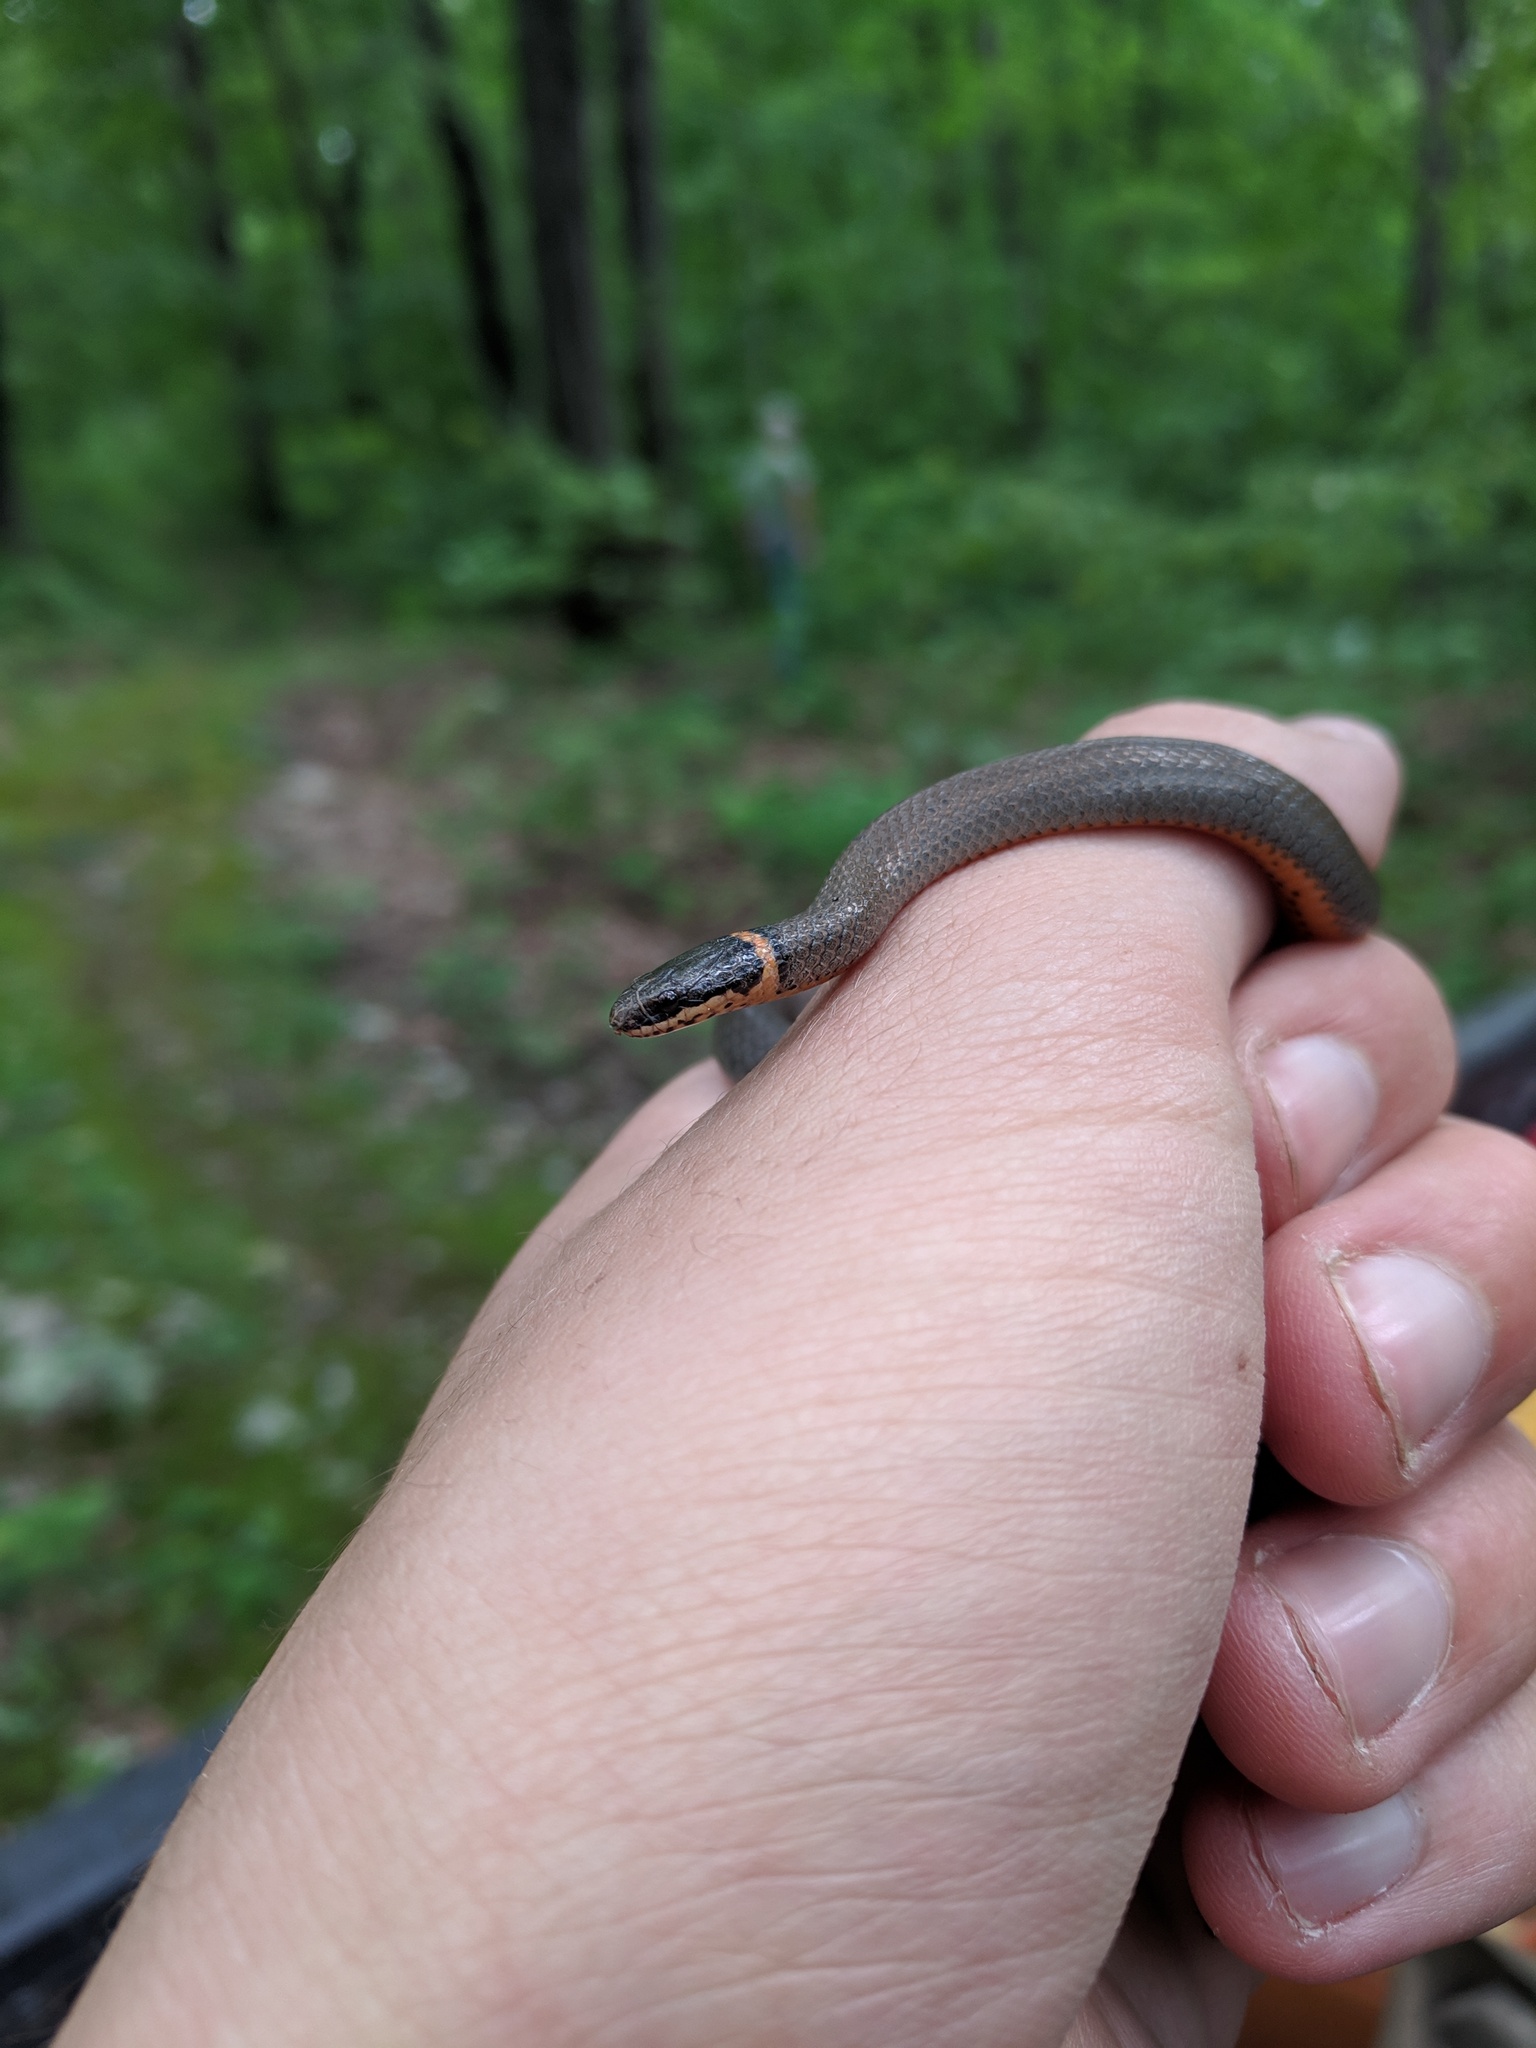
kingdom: Animalia
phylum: Chordata
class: Squamata
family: Colubridae
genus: Diadophis
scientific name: Diadophis punctatus
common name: Ringneck snake
